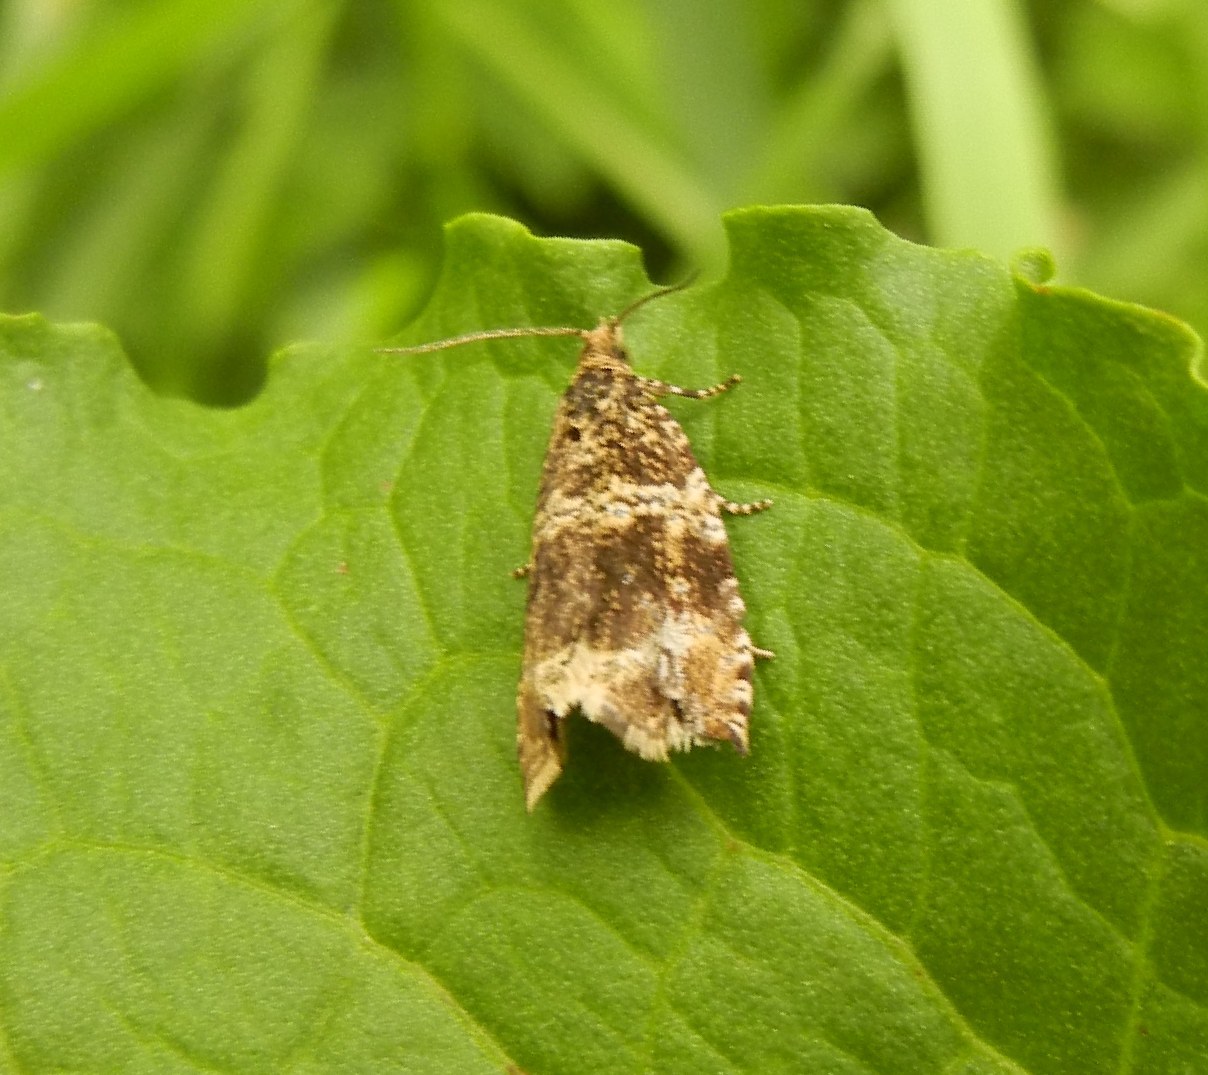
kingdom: Animalia
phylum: Arthropoda
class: Insecta
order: Lepidoptera
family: Tortricidae
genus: Syricoris
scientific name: Syricoris lacunana
